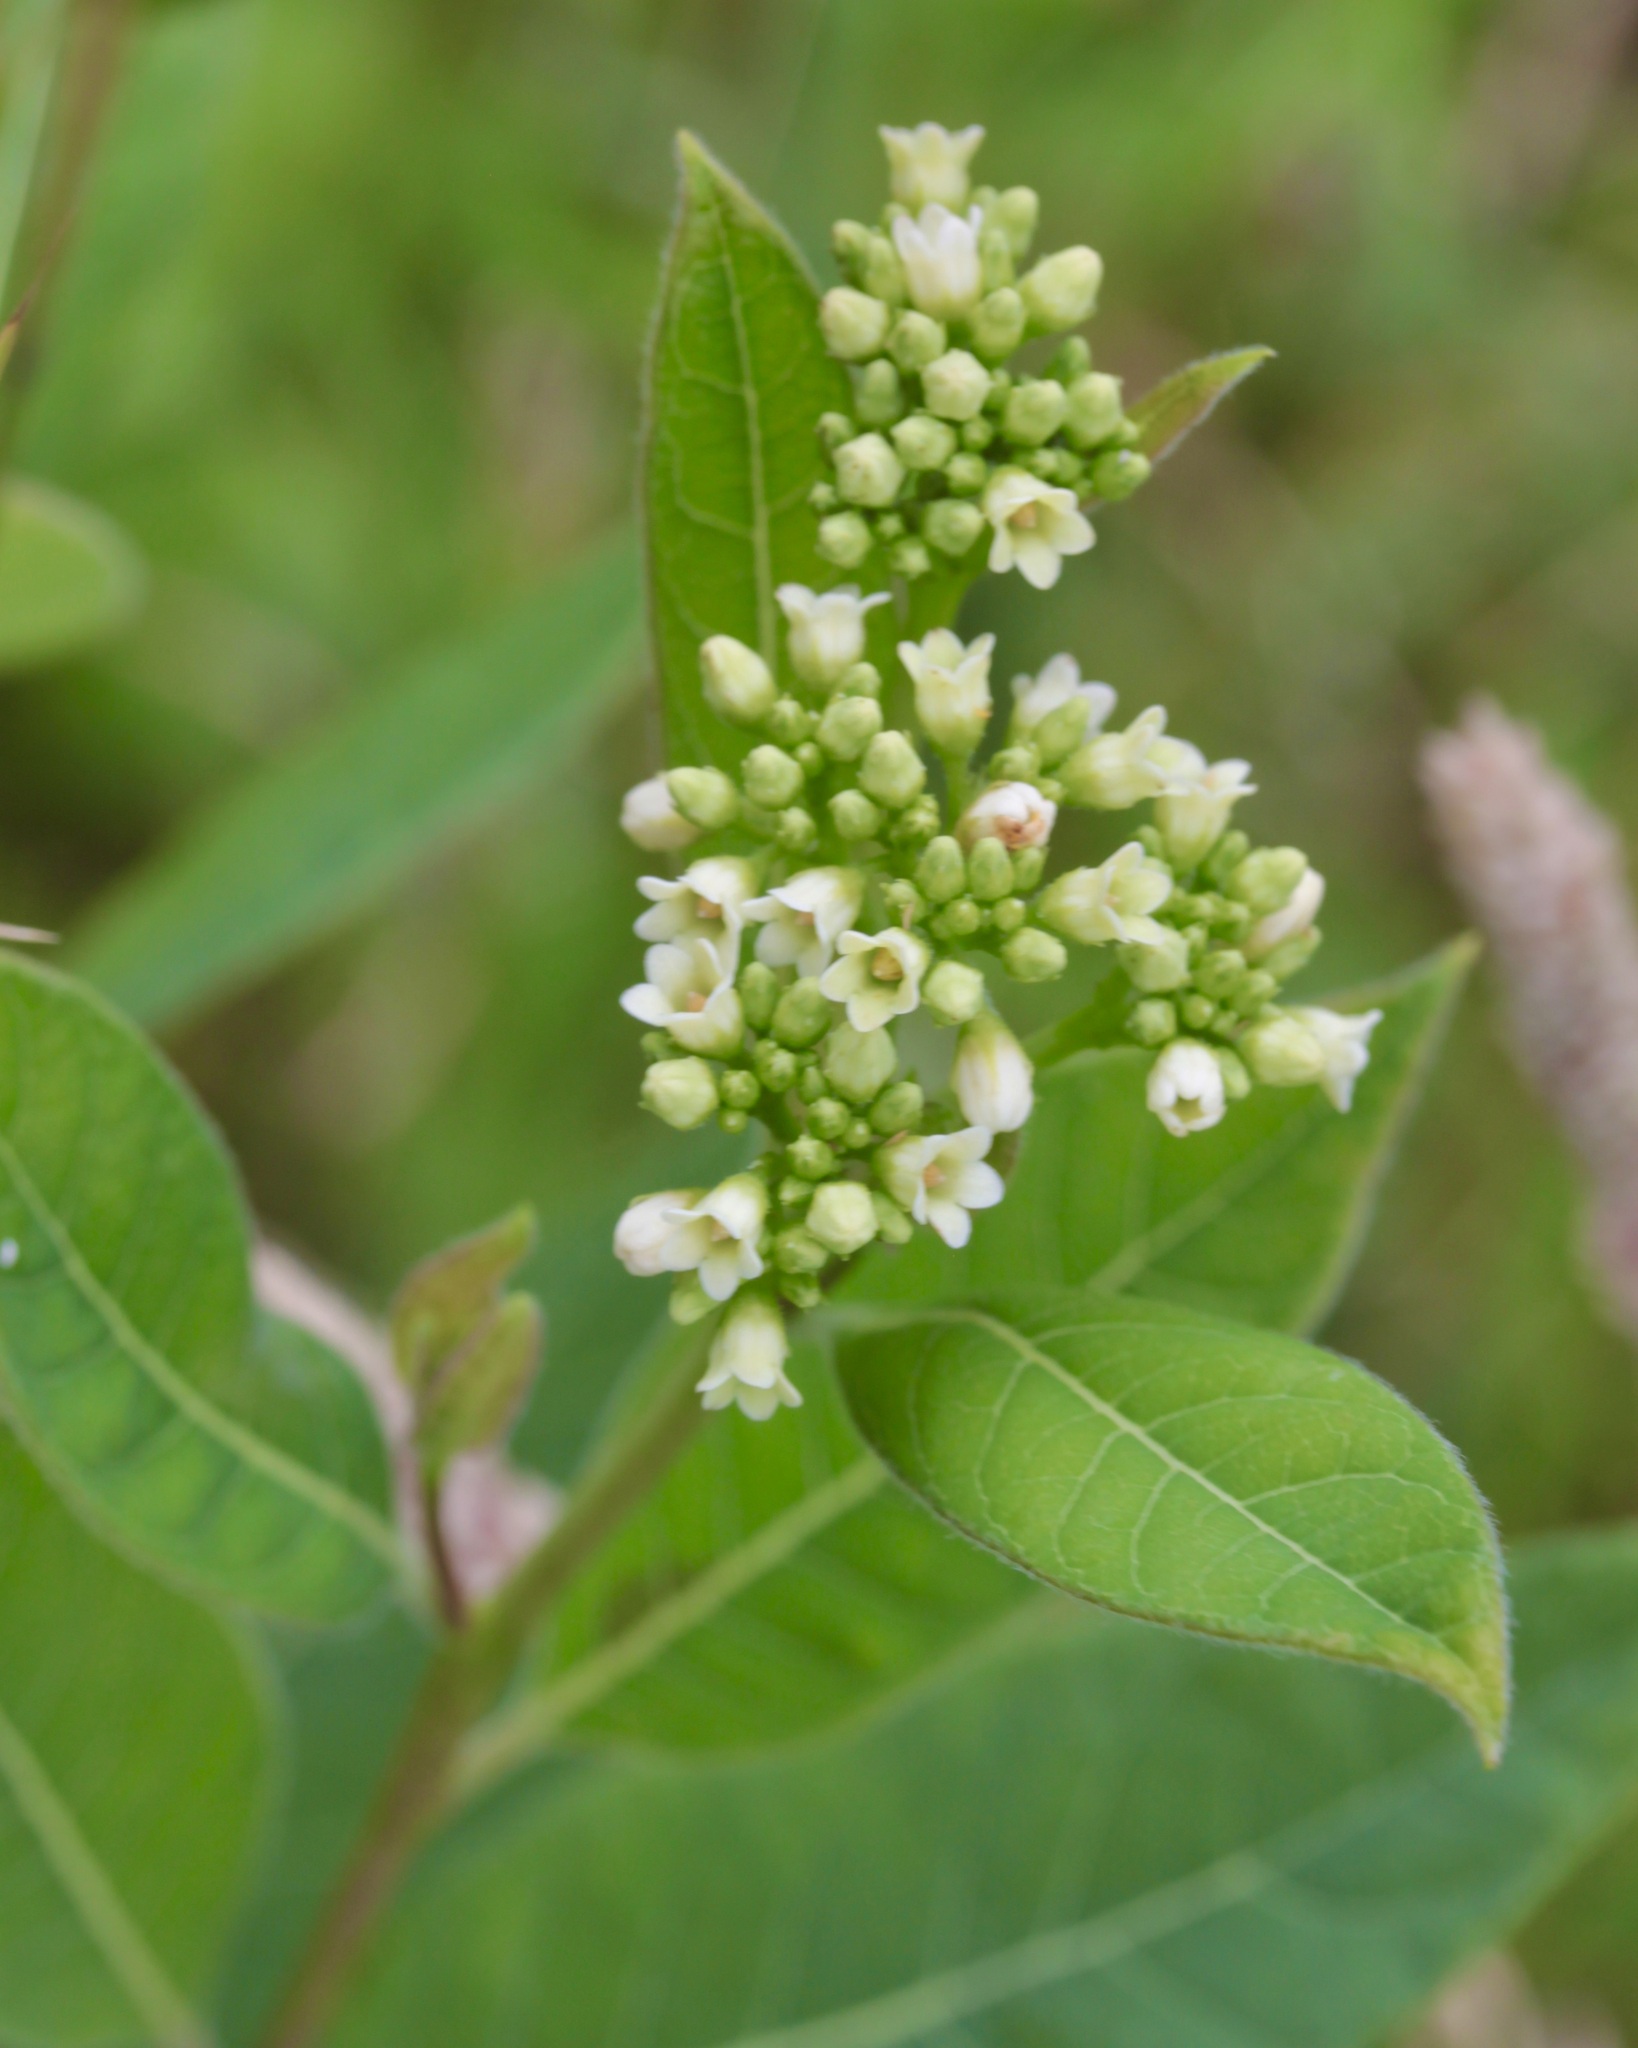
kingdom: Plantae
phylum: Tracheophyta
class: Magnoliopsida
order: Gentianales
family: Apocynaceae
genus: Apocynum
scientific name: Apocynum cannabinum
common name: Hemp dogbane
